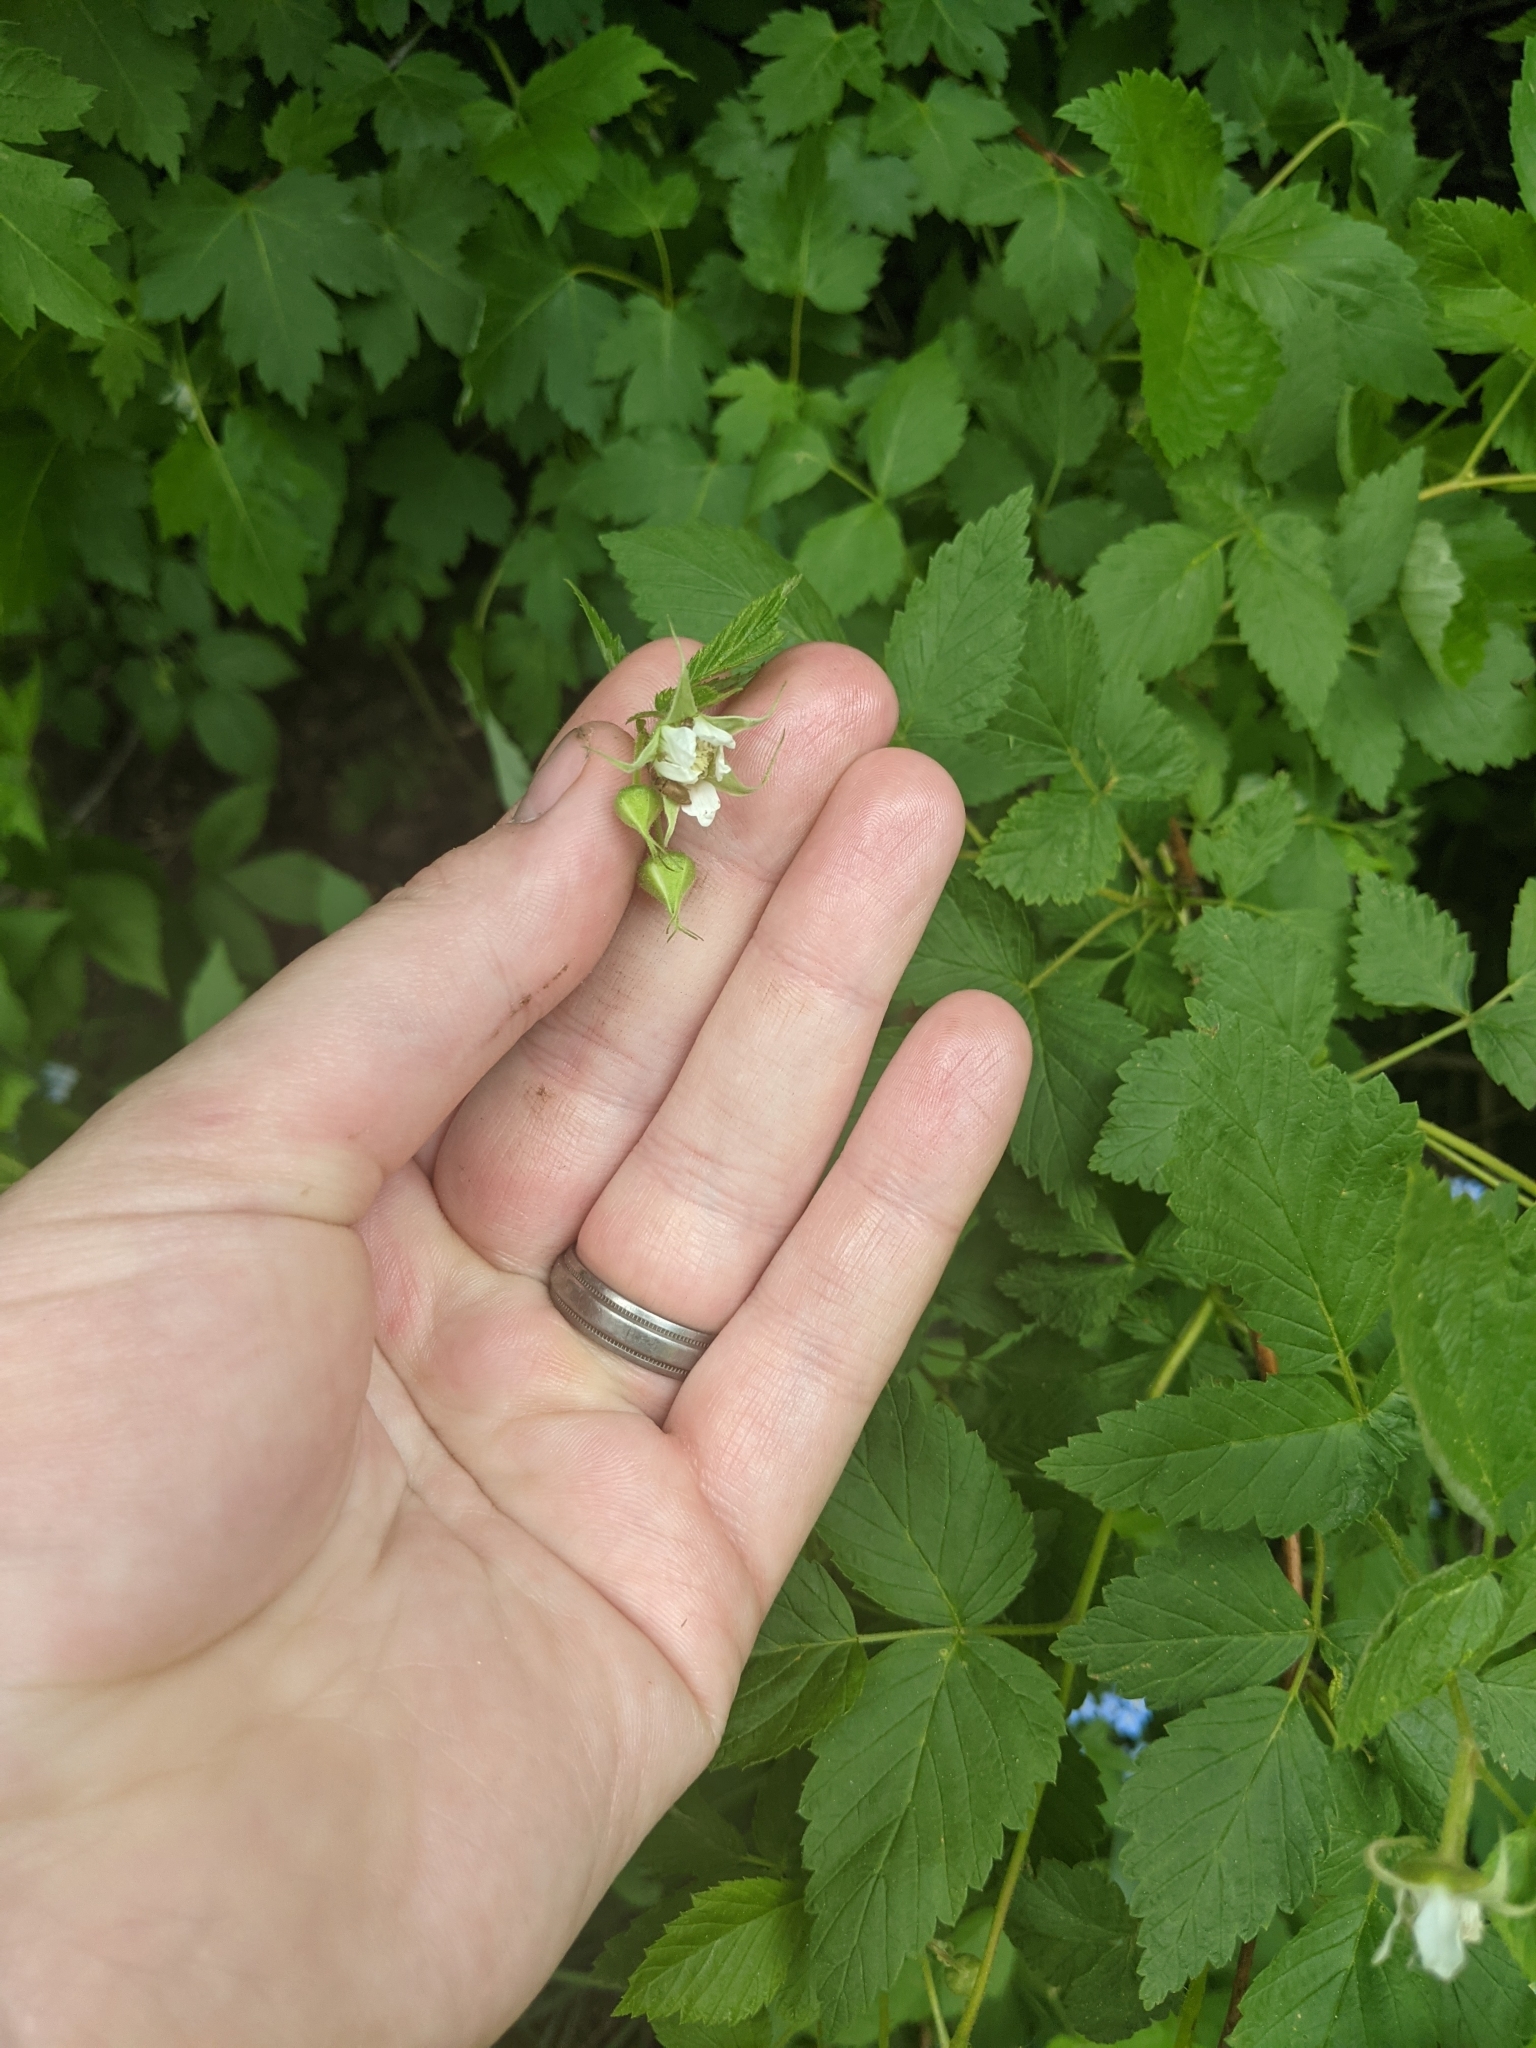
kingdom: Plantae
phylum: Tracheophyta
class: Magnoliopsida
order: Rosales
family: Rosaceae
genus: Rubus
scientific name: Rubus idaeus
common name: Raspberry
